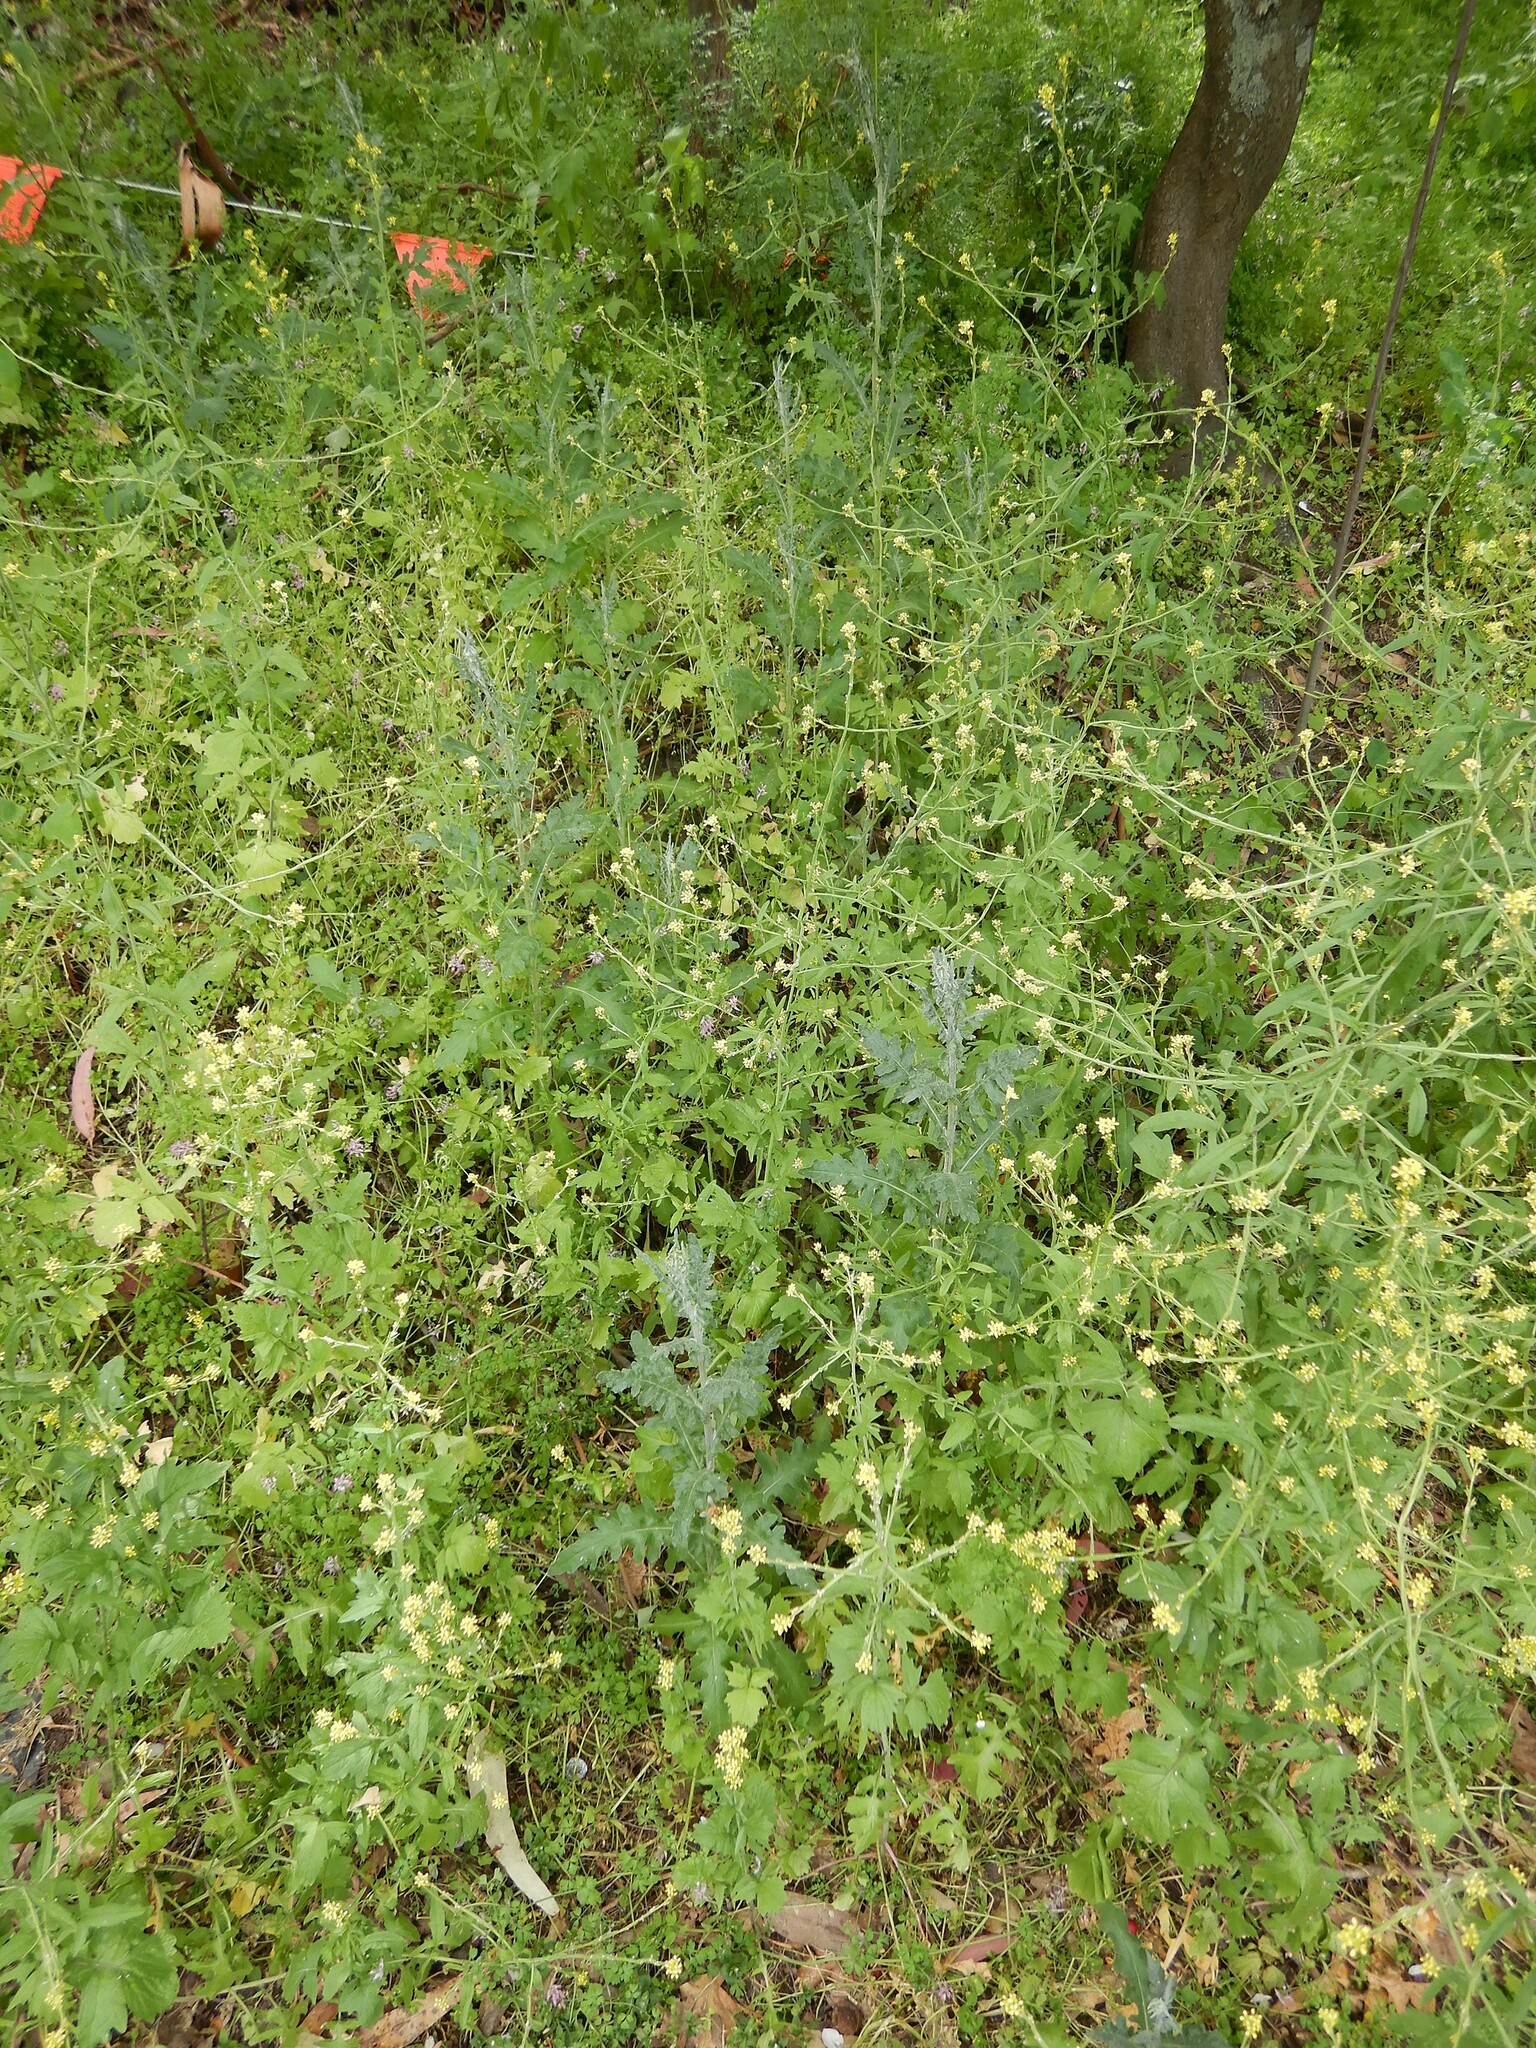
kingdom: Plantae
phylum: Tracheophyta
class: Magnoliopsida
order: Asterales
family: Asteraceae
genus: Senecio
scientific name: Senecio glomeratus
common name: Cutleaf burnweed
